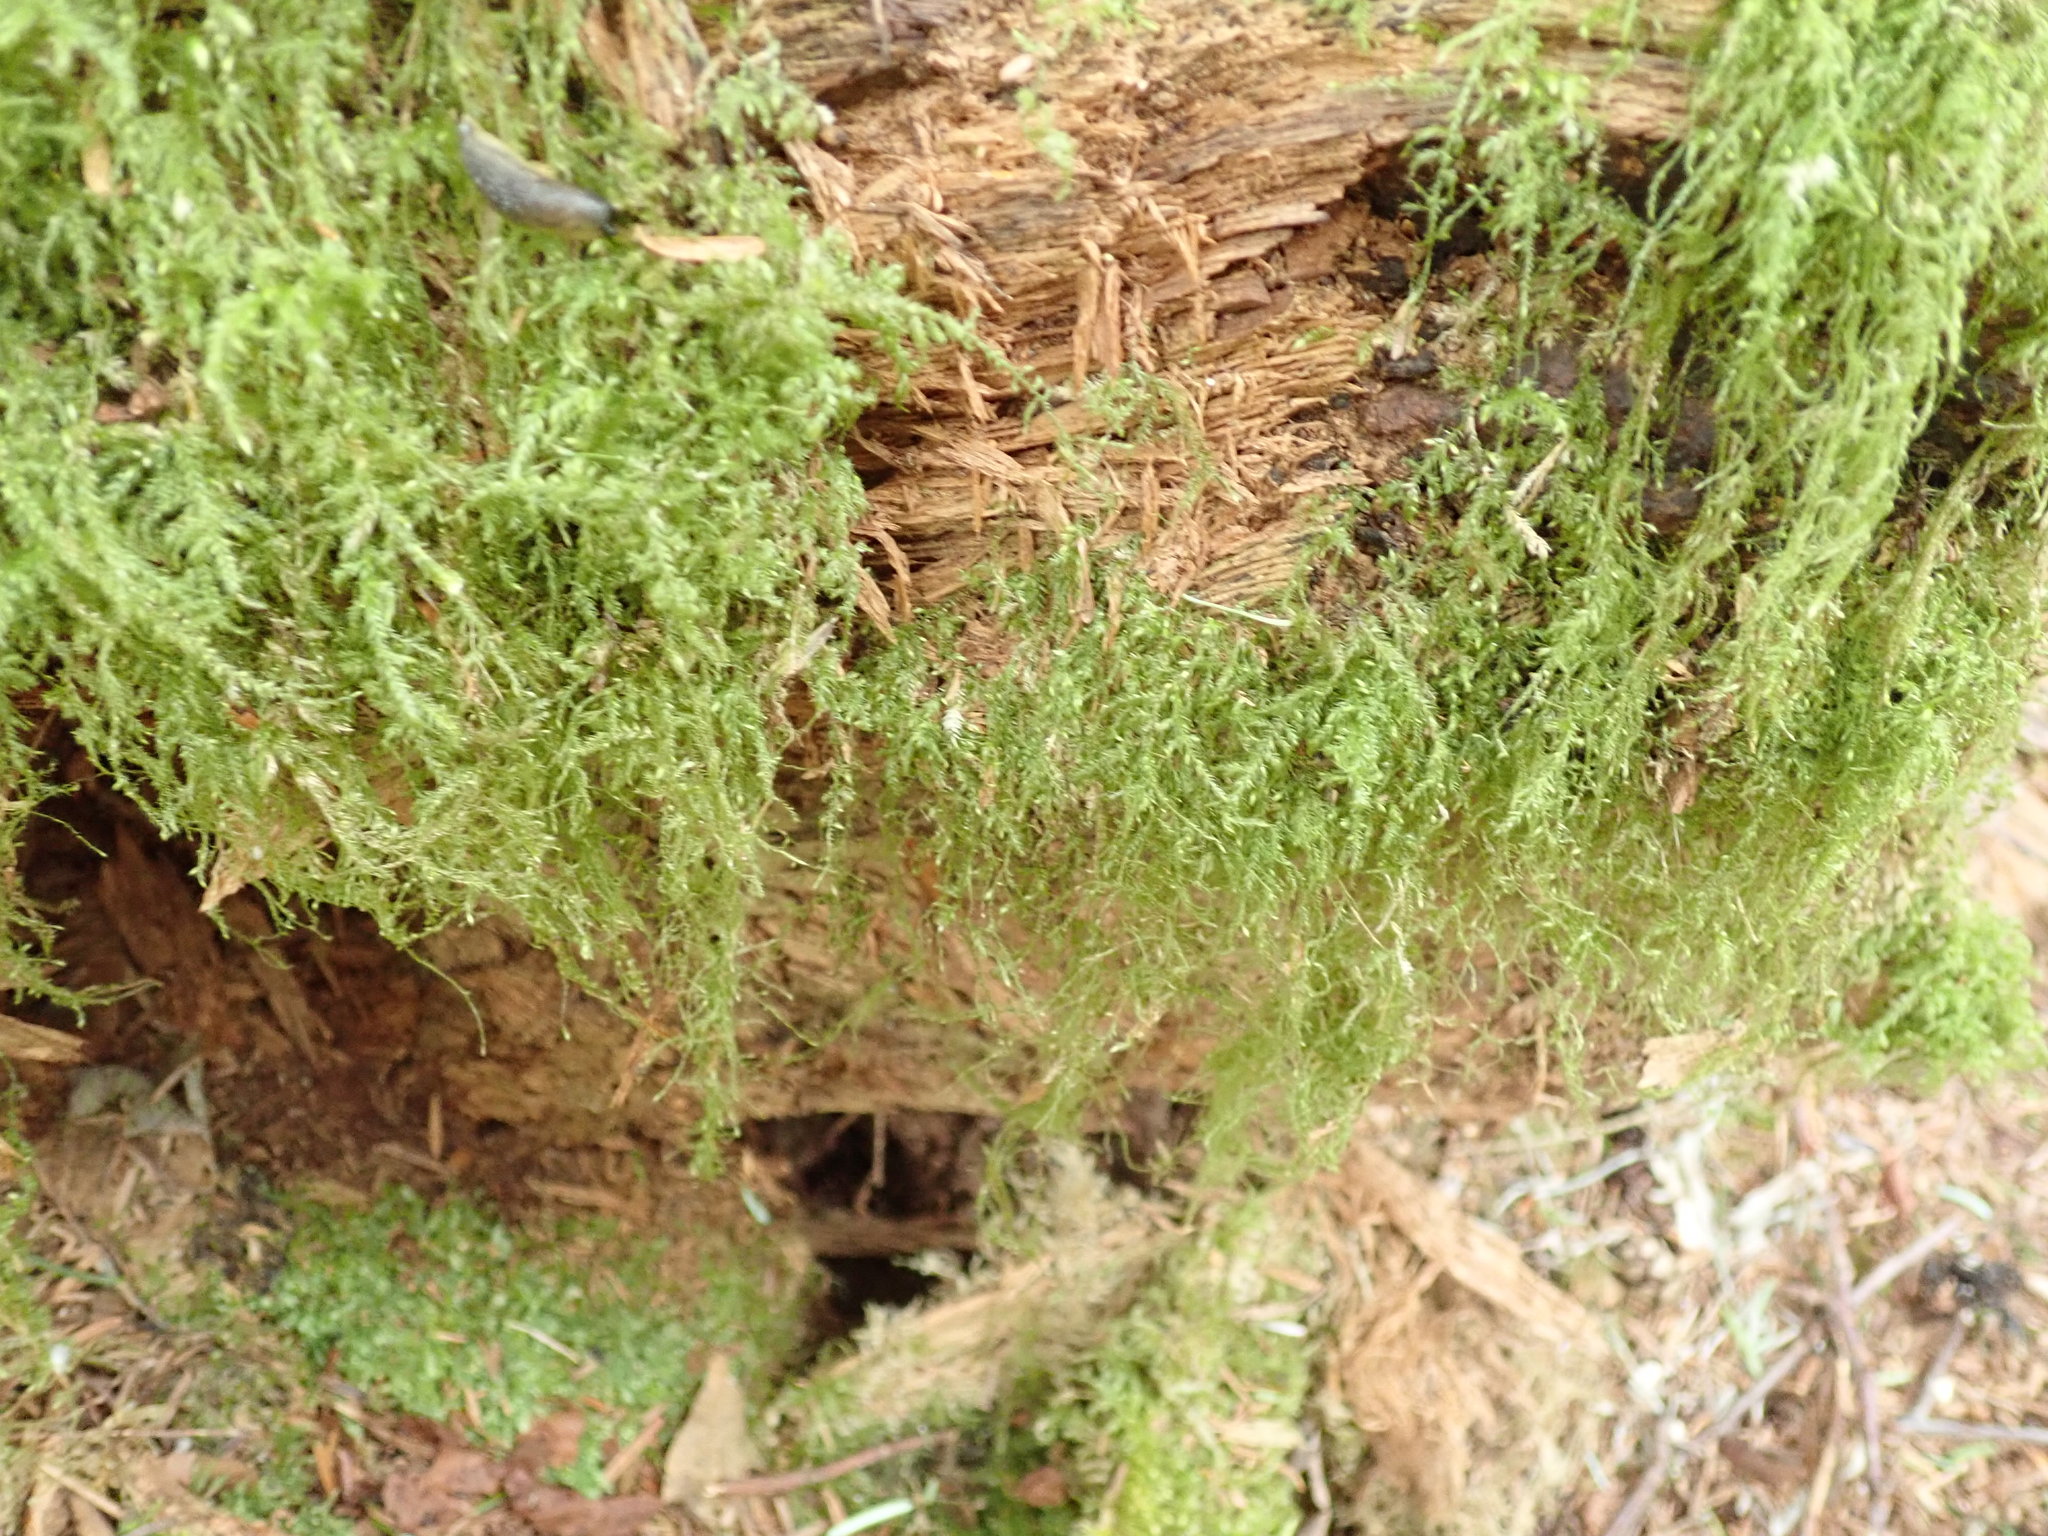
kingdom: Plantae
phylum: Bryophyta
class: Bryopsida
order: Hypnales
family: Lembophyllaceae
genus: Pseudisothecium
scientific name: Pseudisothecium stoloniferum
